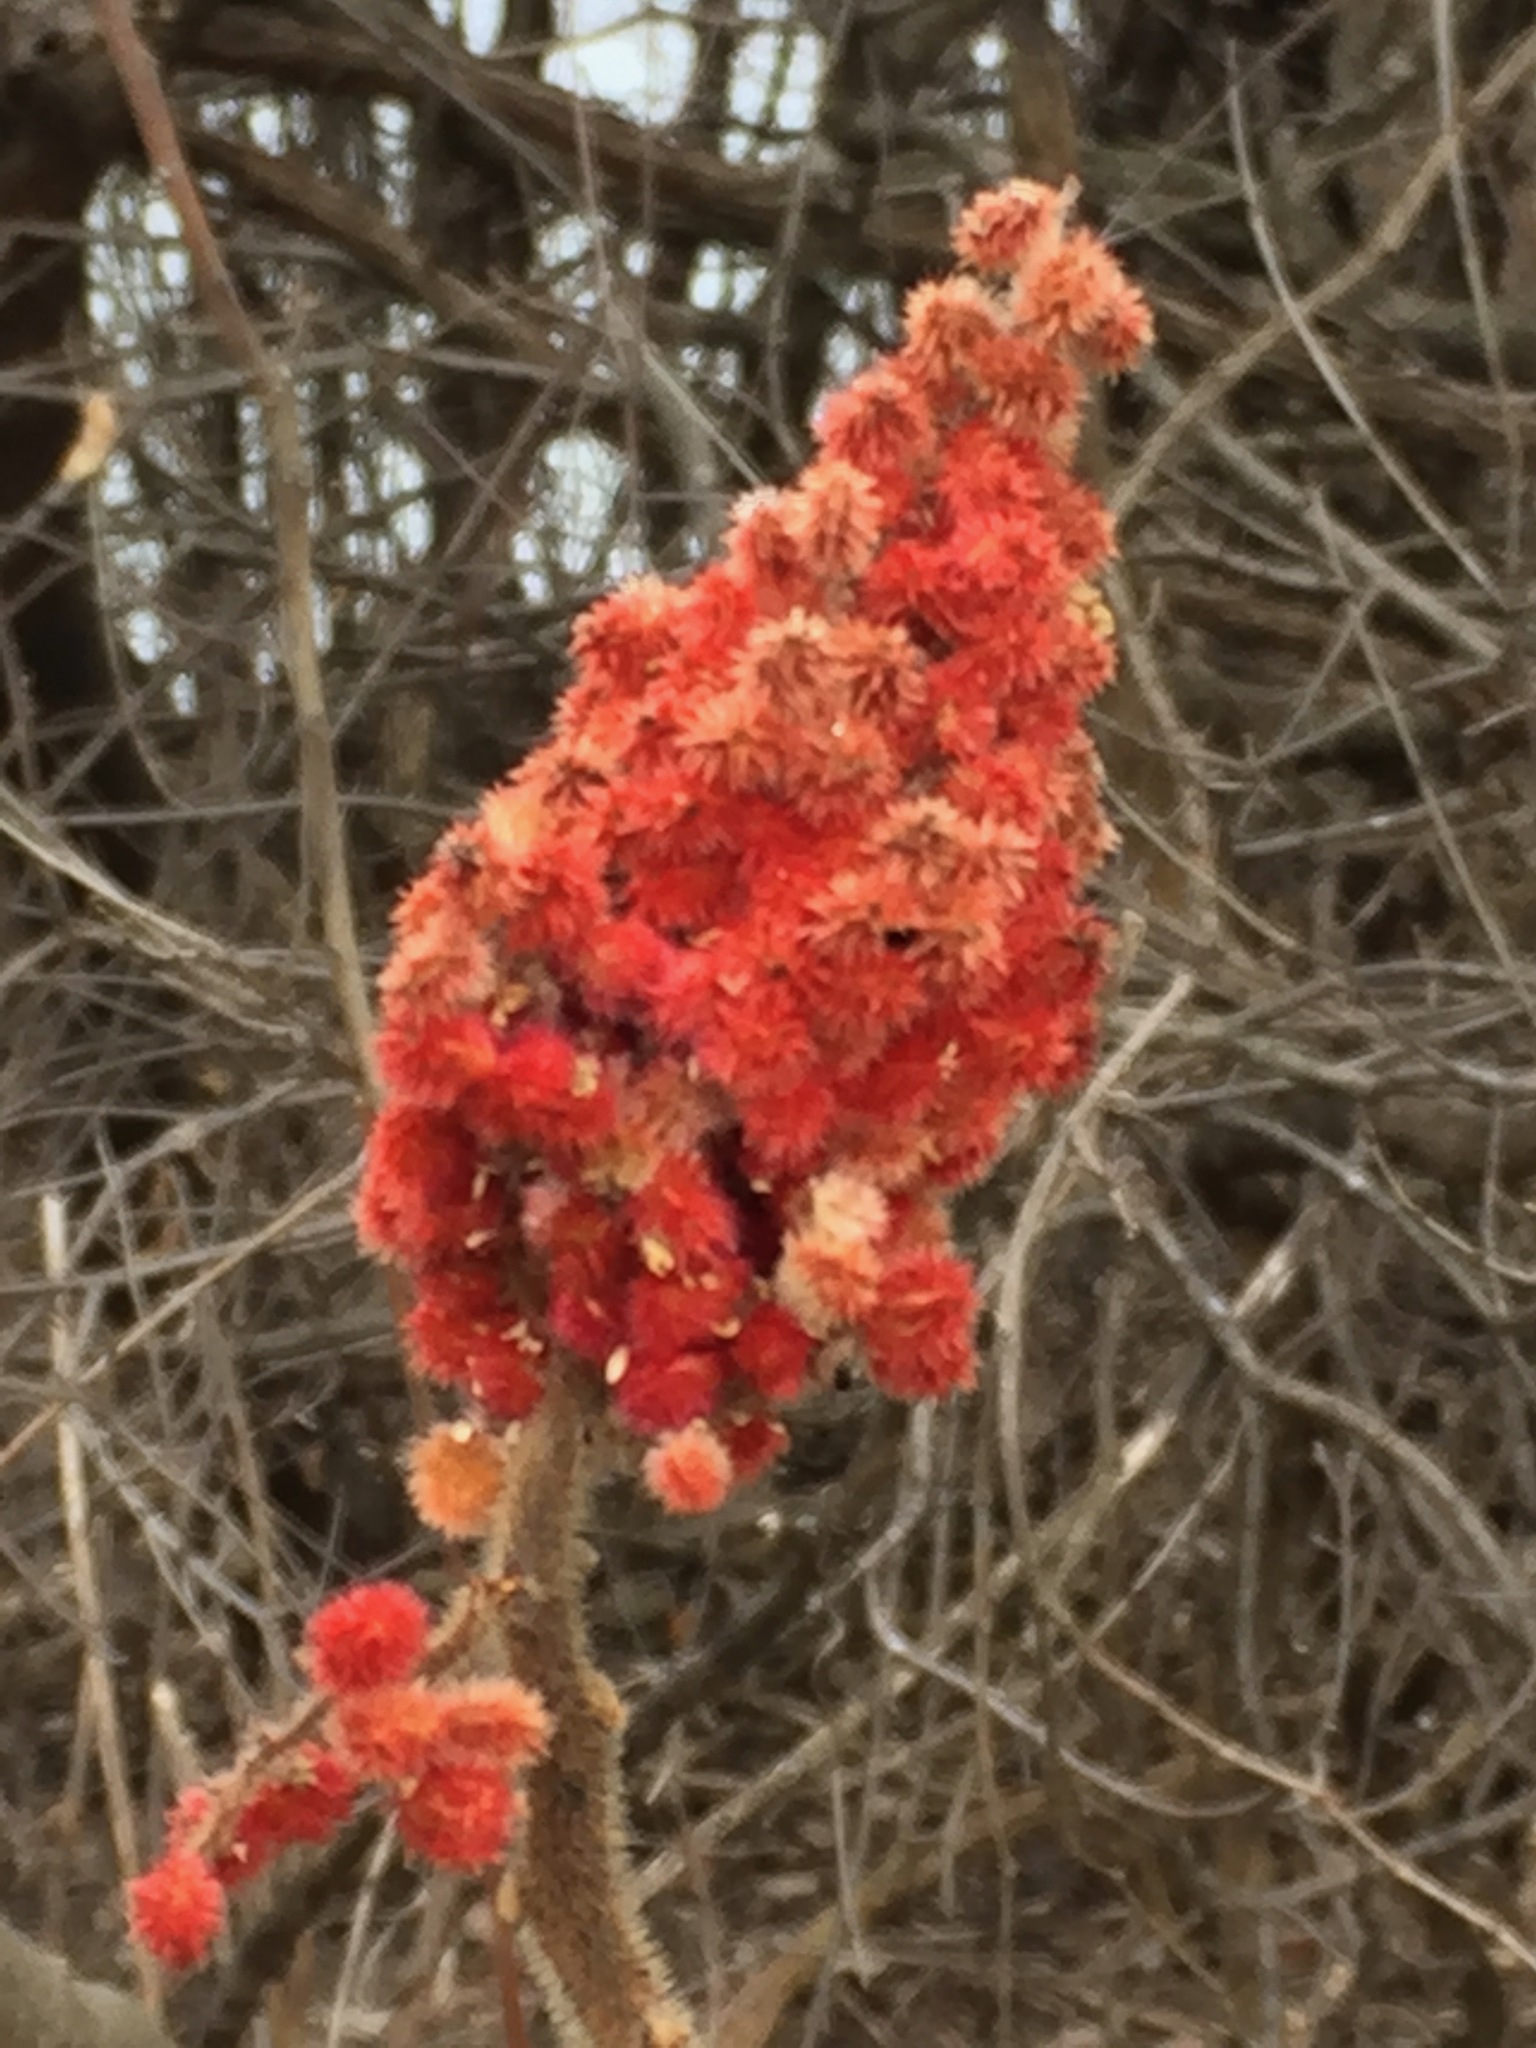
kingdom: Plantae
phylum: Tracheophyta
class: Magnoliopsida
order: Sapindales
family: Anacardiaceae
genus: Rhus
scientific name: Rhus typhina
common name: Staghorn sumac
